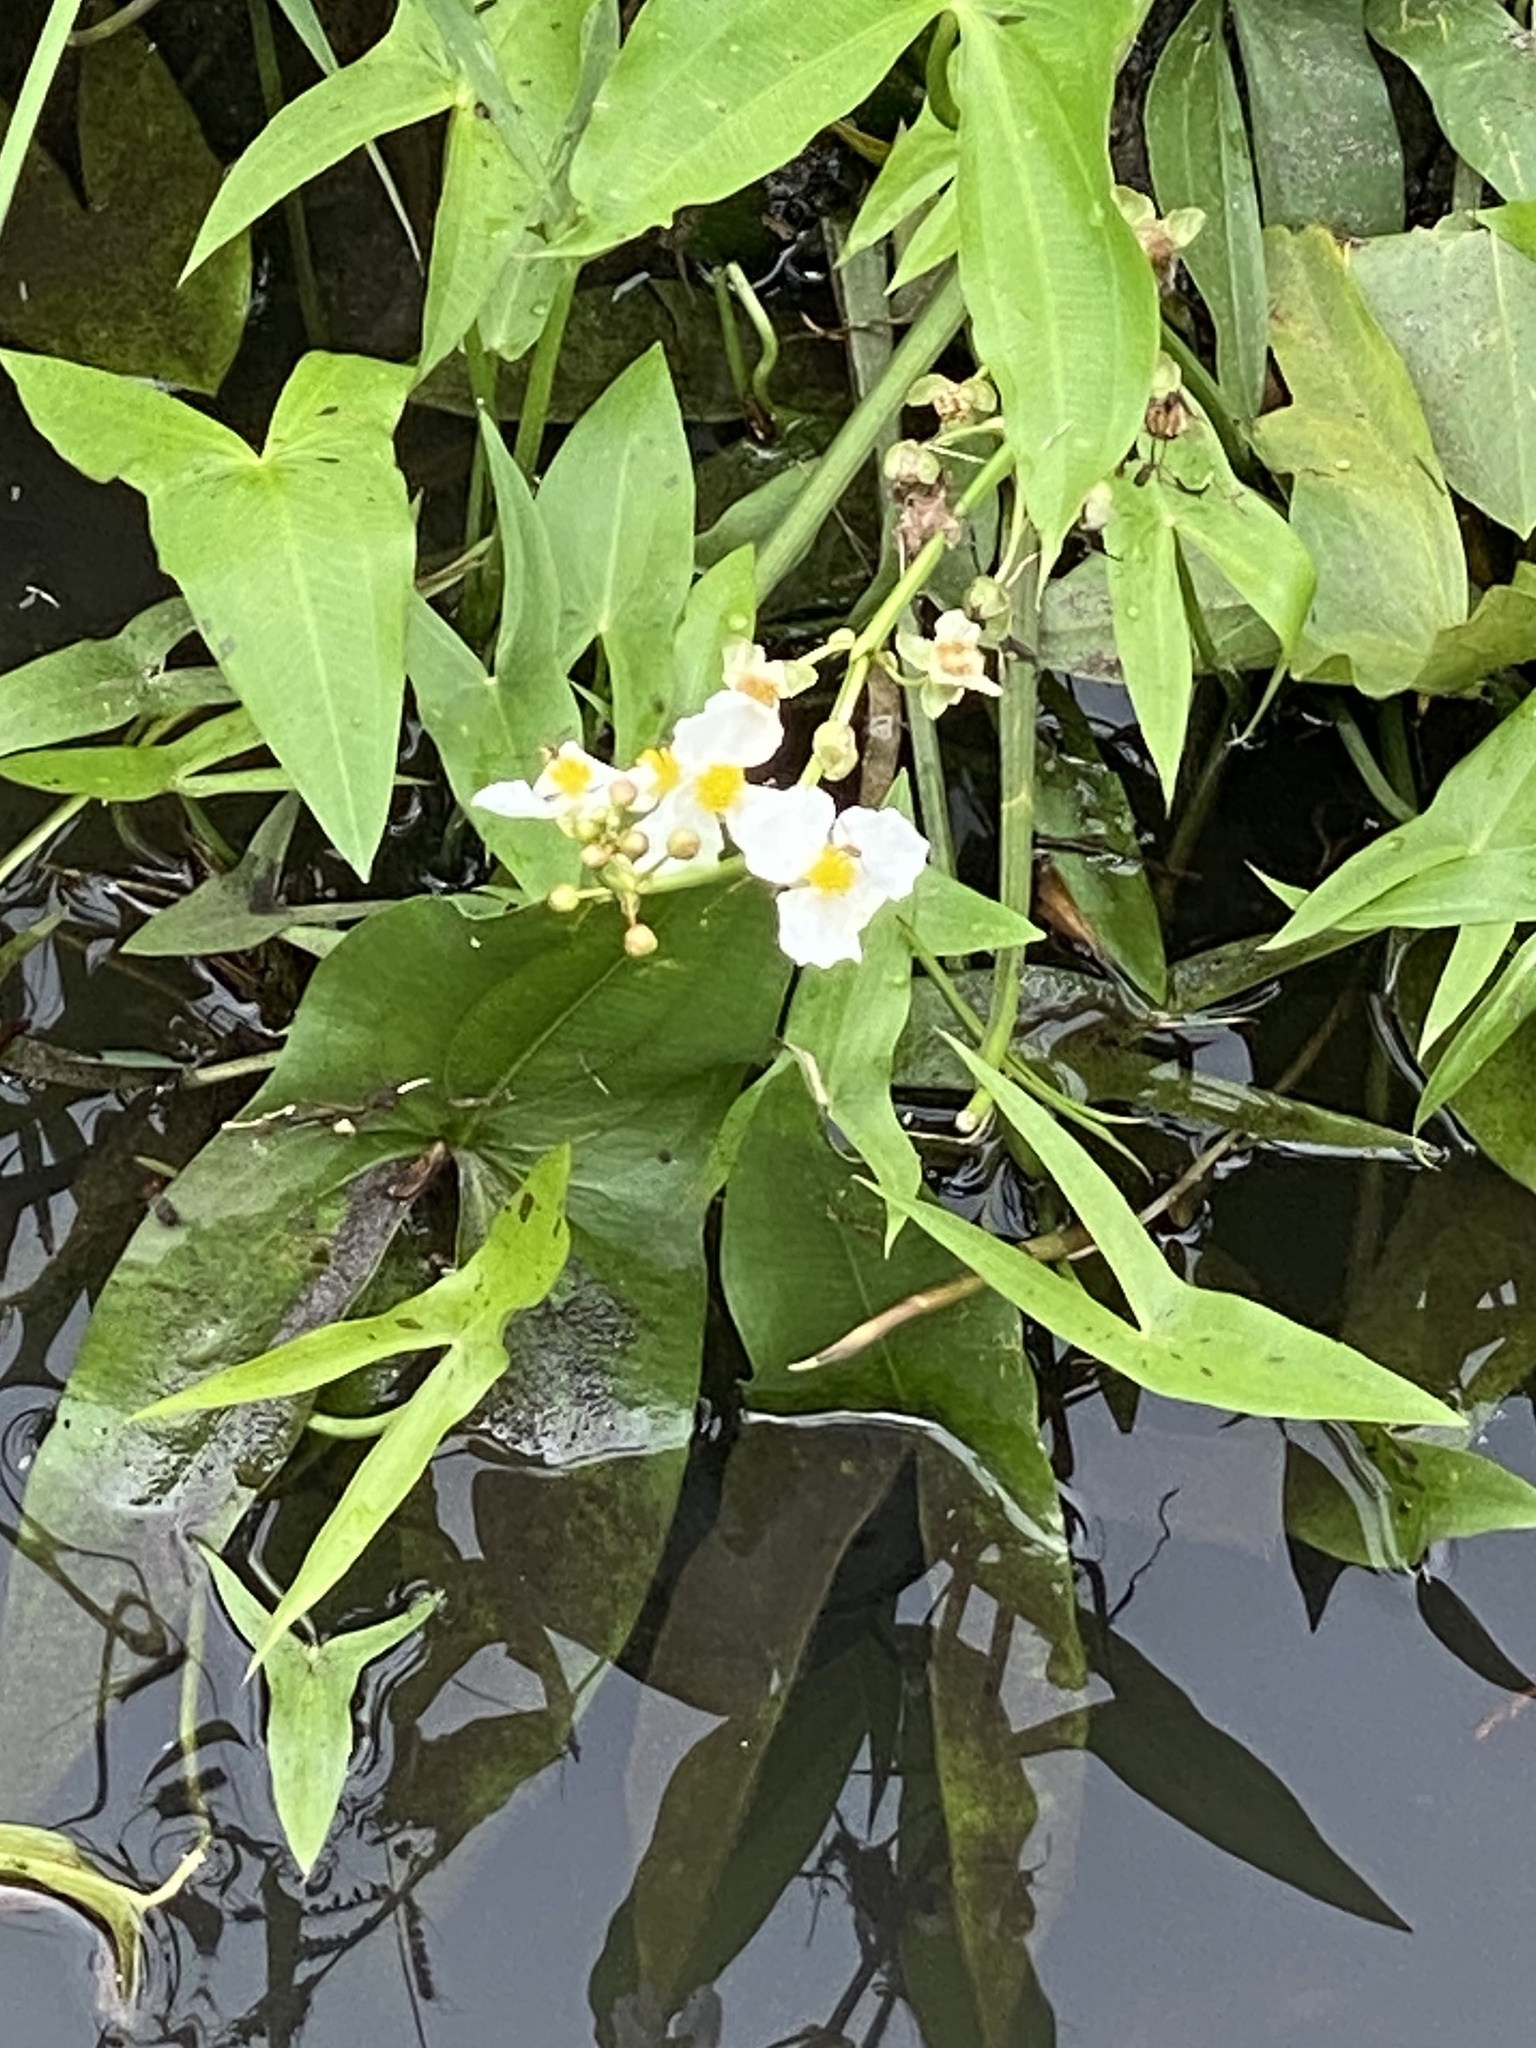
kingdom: Plantae
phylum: Tracheophyta
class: Liliopsida
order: Alismatales
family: Alismataceae
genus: Sagittaria
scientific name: Sagittaria latifolia
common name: Duck-potato
